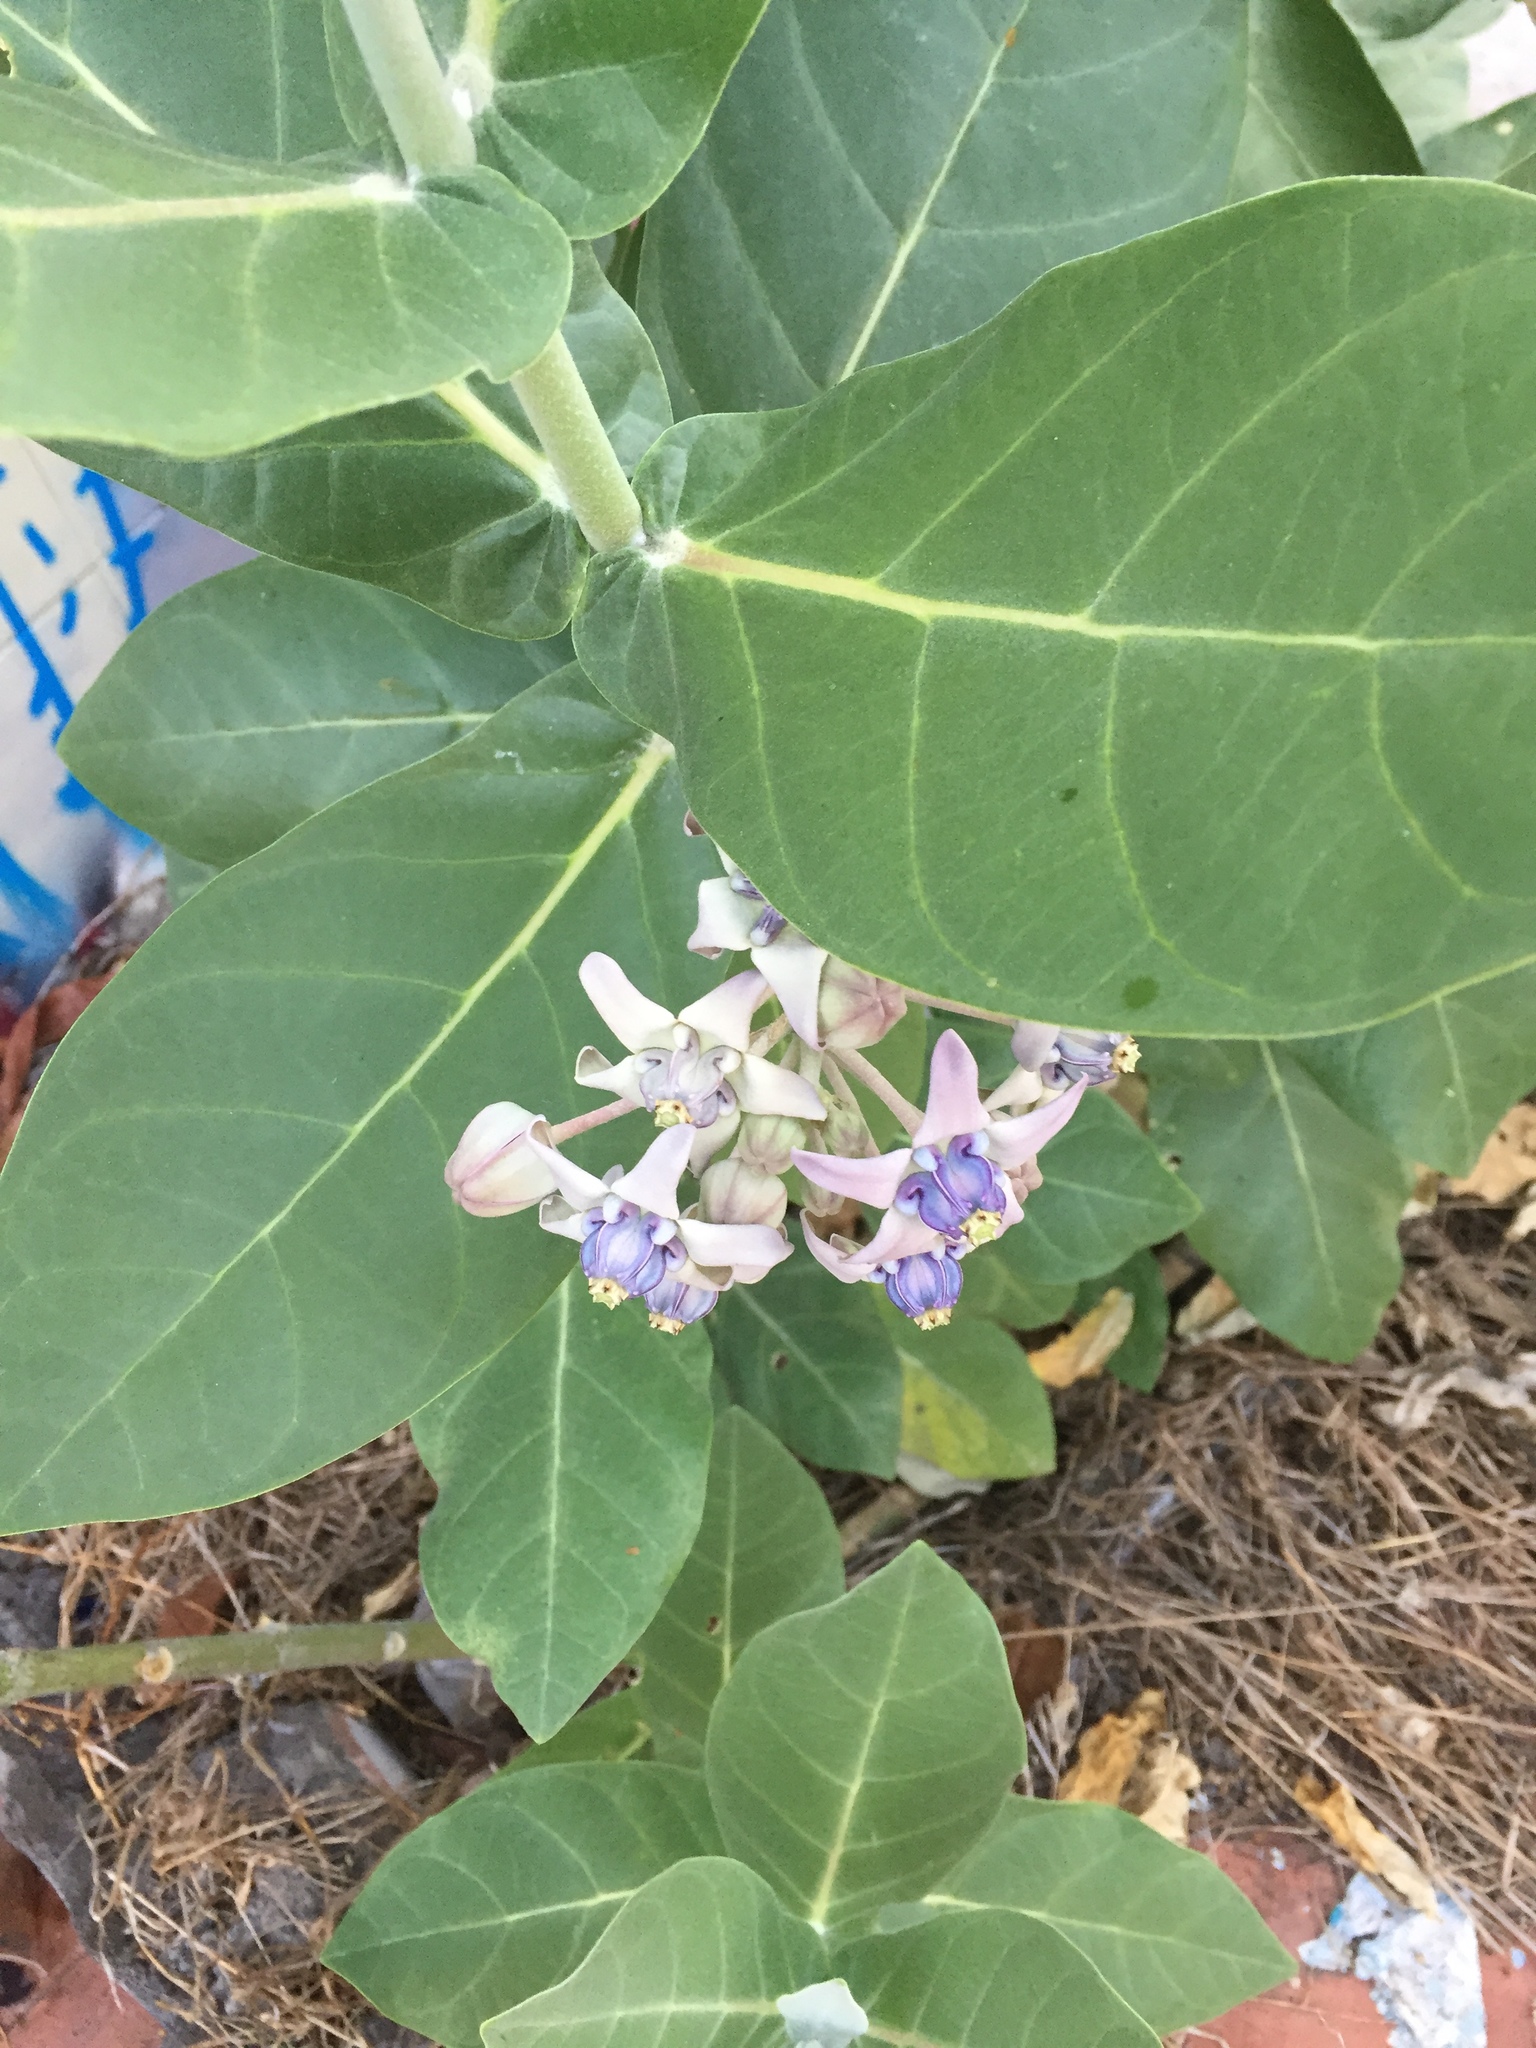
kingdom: Plantae
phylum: Tracheophyta
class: Magnoliopsida
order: Gentianales
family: Apocynaceae
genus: Calotropis
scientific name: Calotropis gigantea
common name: Crown flower
